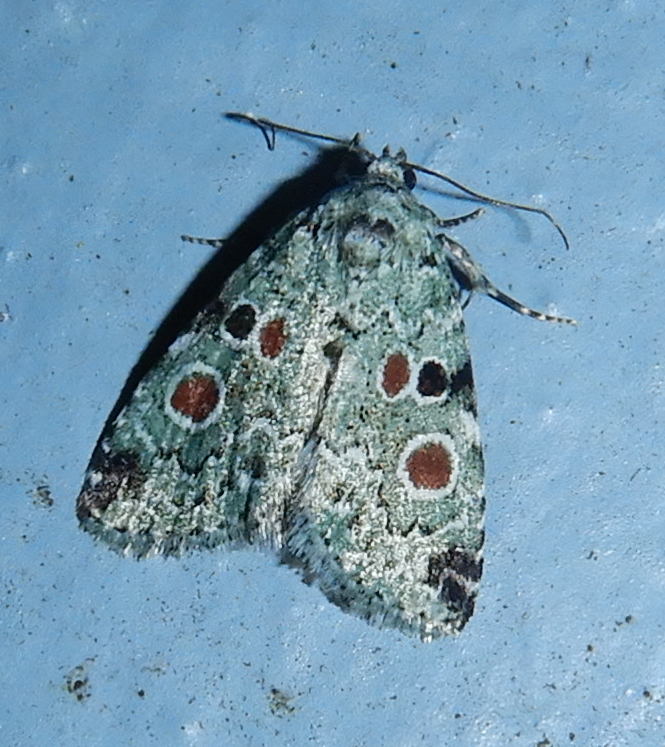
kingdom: Animalia
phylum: Arthropoda
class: Insecta
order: Lepidoptera
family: Noctuidae
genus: Maliattha
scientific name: Maliattha concinnimacula
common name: Red-spotted glyph
